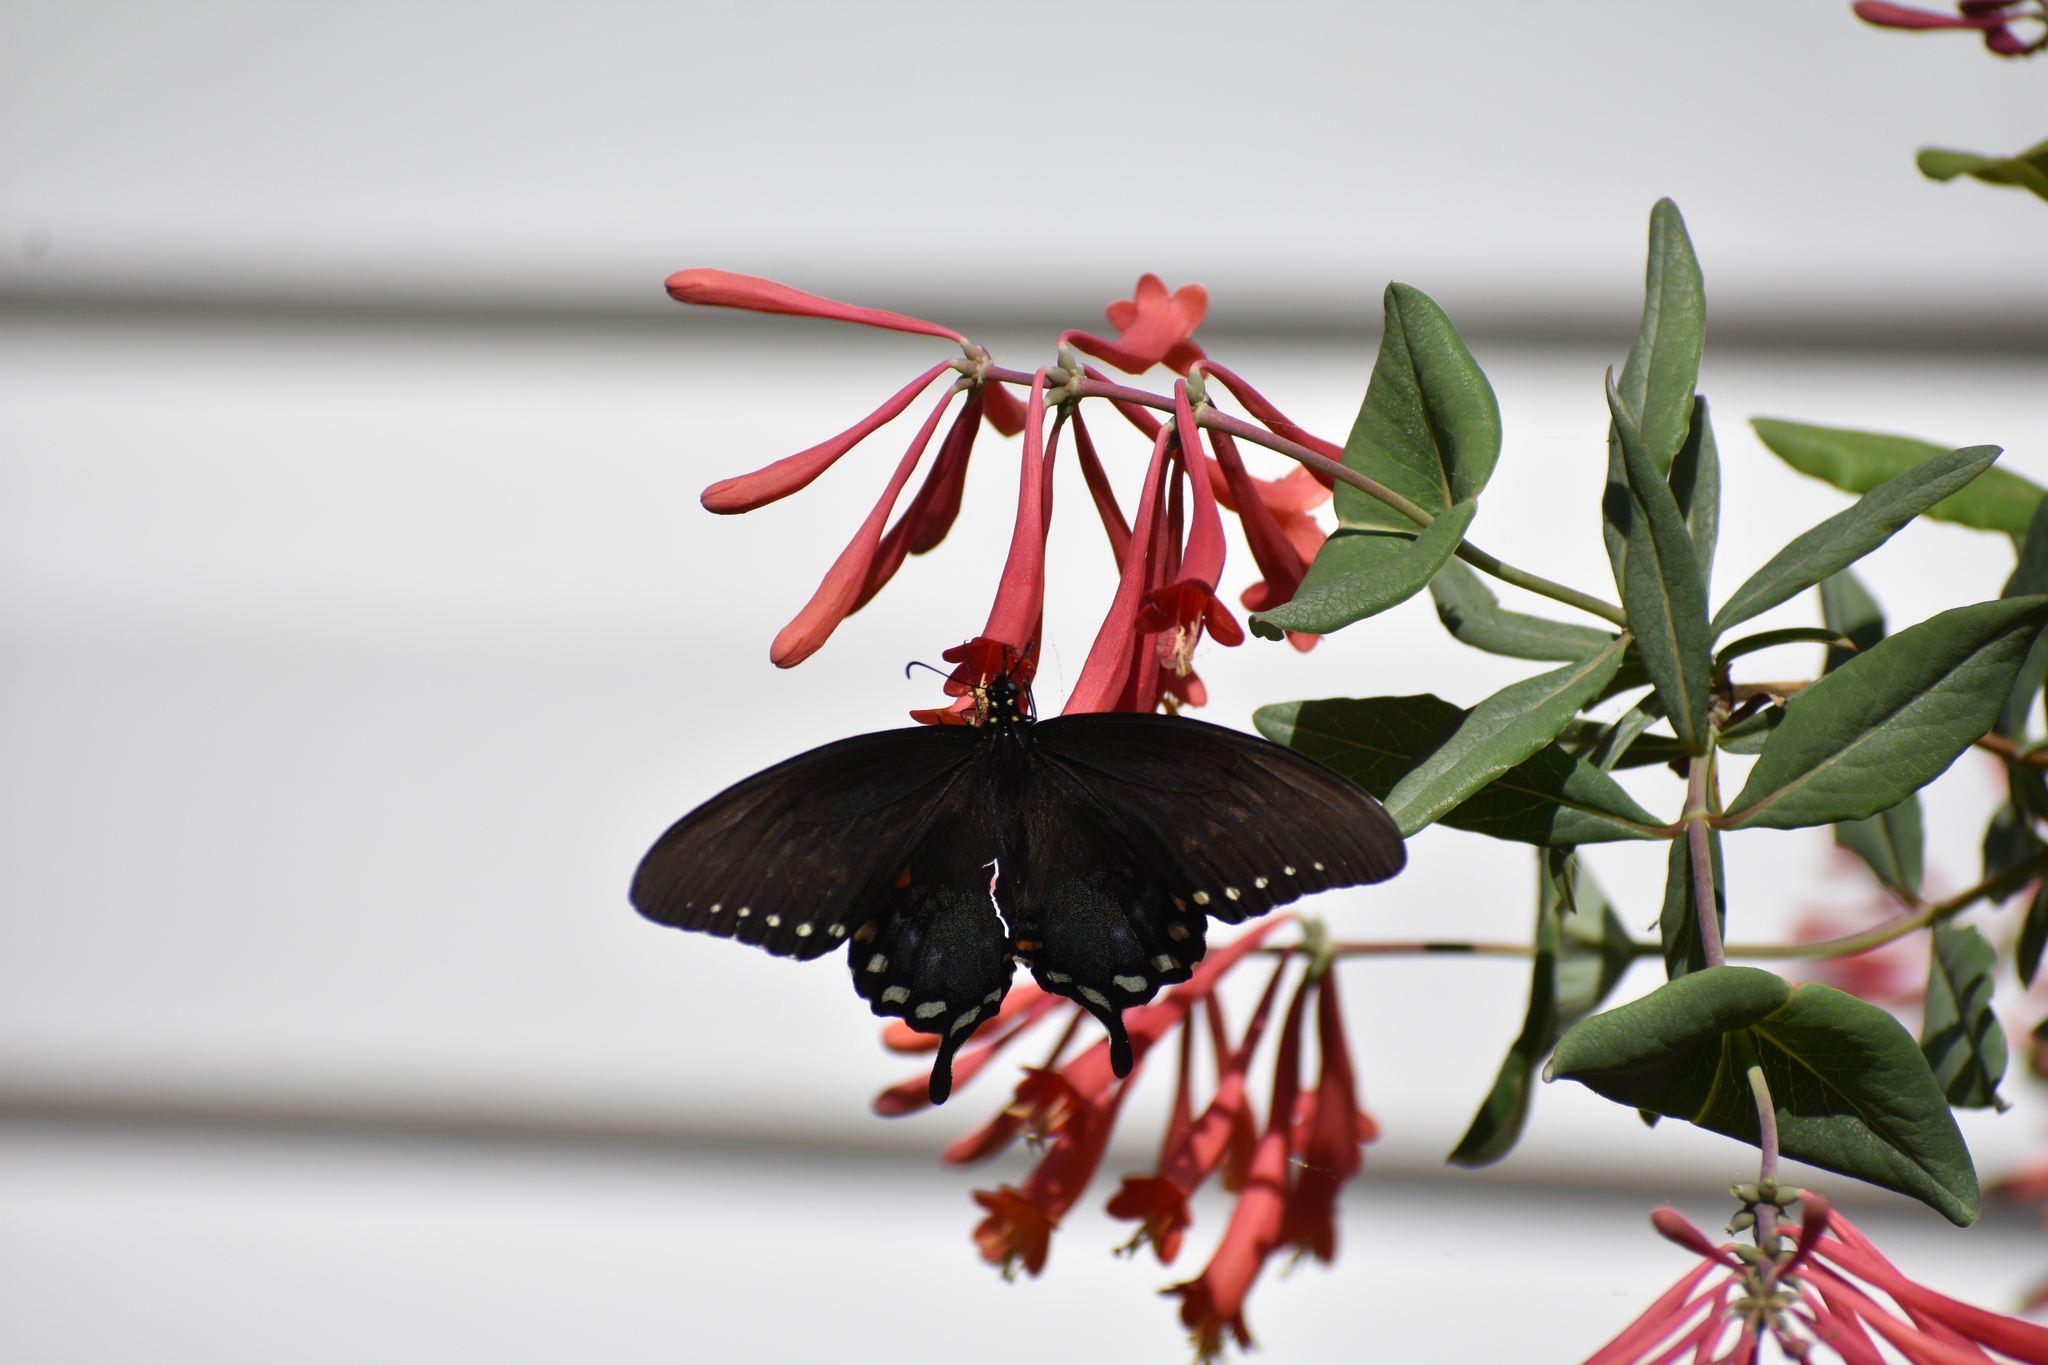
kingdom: Animalia
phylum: Arthropoda
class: Insecta
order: Lepidoptera
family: Papilionidae
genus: Papilio
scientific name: Papilio troilus
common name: Spicebush swallowtail
